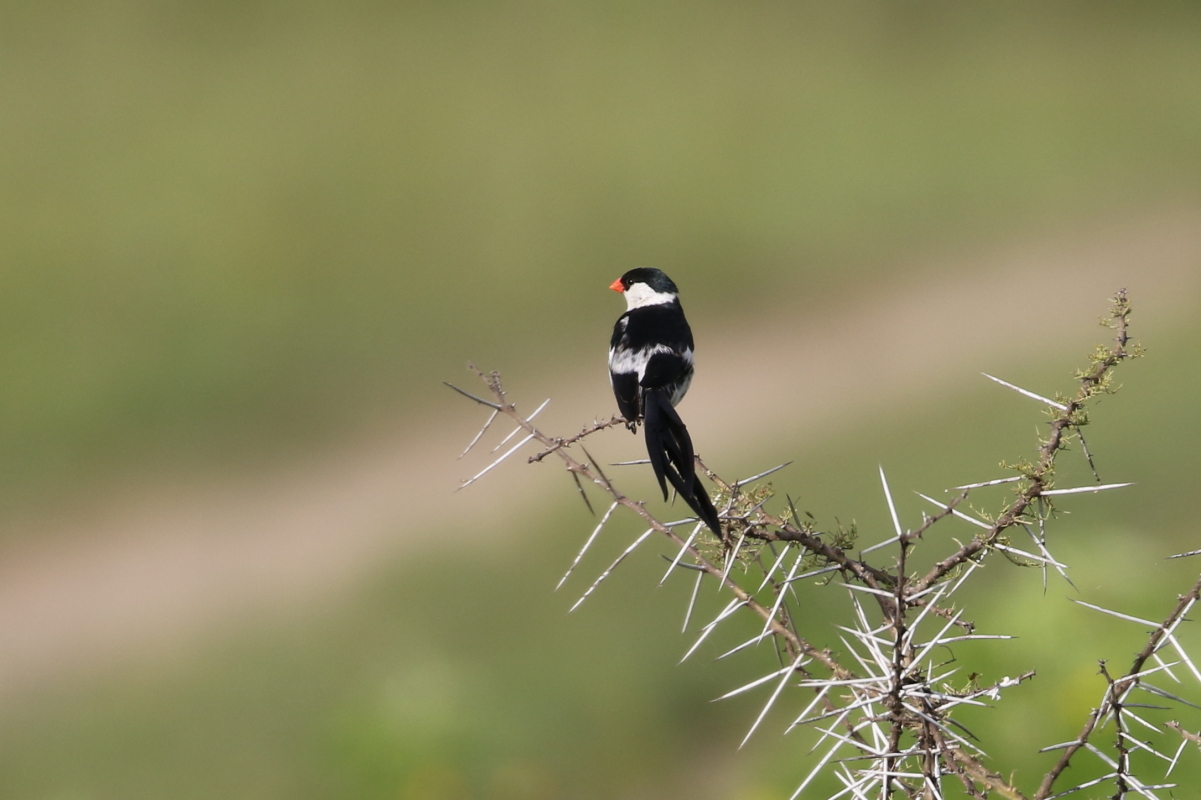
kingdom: Animalia
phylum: Chordata
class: Aves
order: Passeriformes
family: Viduidae
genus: Vidua
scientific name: Vidua macroura
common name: Pin-tailed whydah
